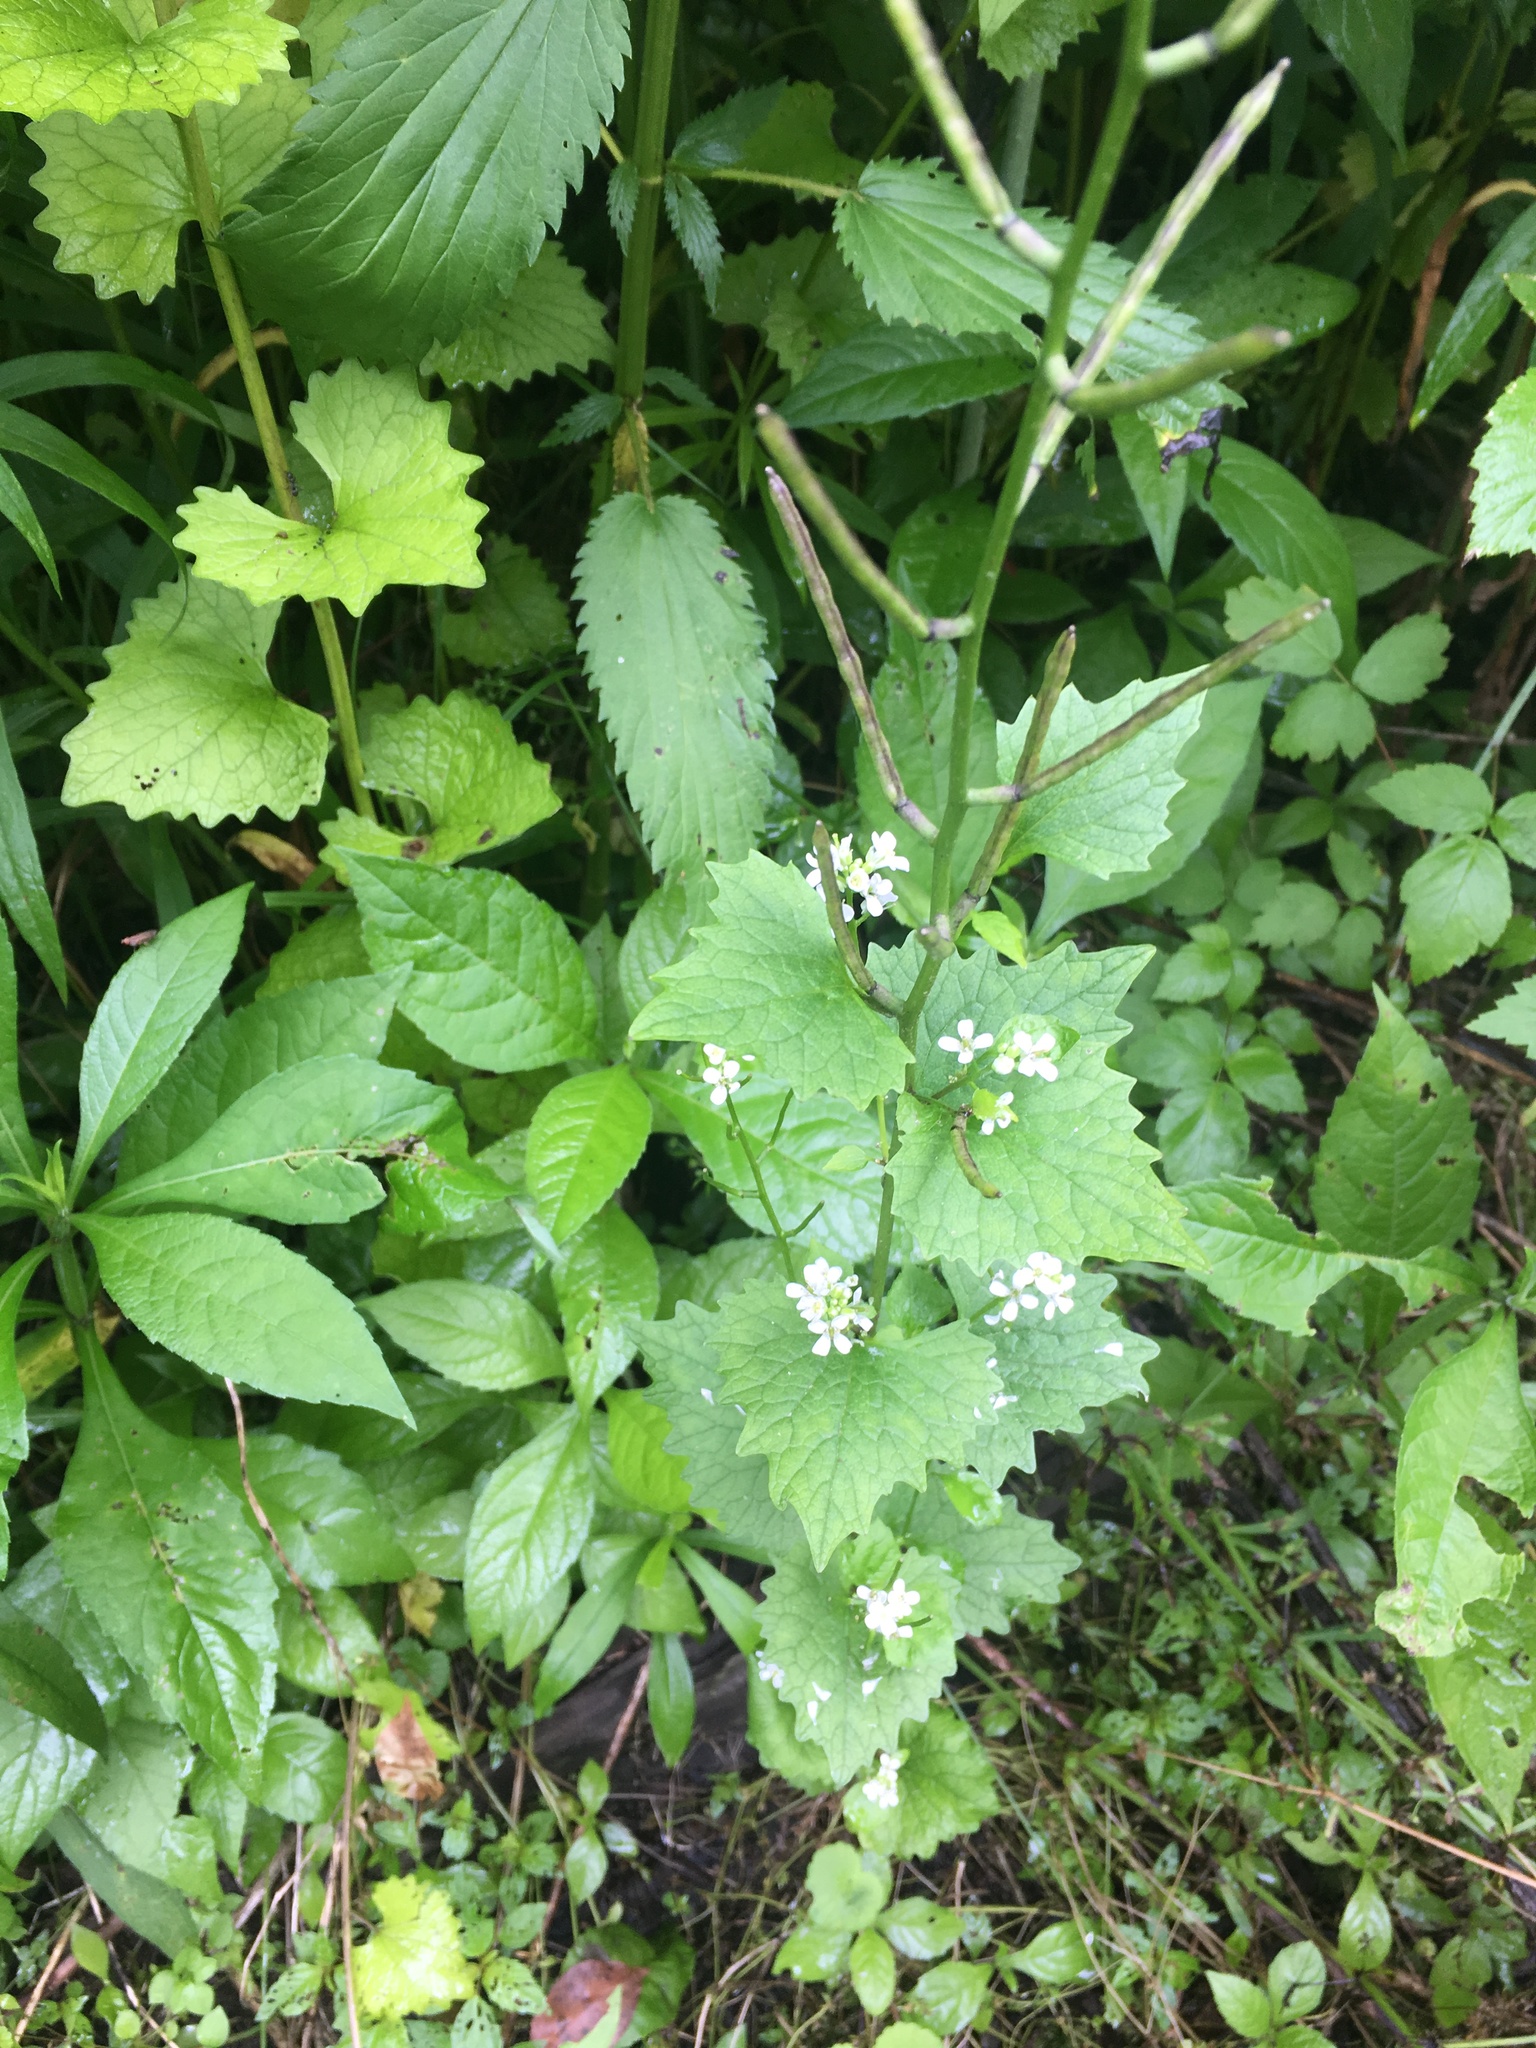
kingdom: Plantae
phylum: Tracheophyta
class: Magnoliopsida
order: Brassicales
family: Brassicaceae
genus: Alliaria
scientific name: Alliaria petiolata
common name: Garlic mustard
